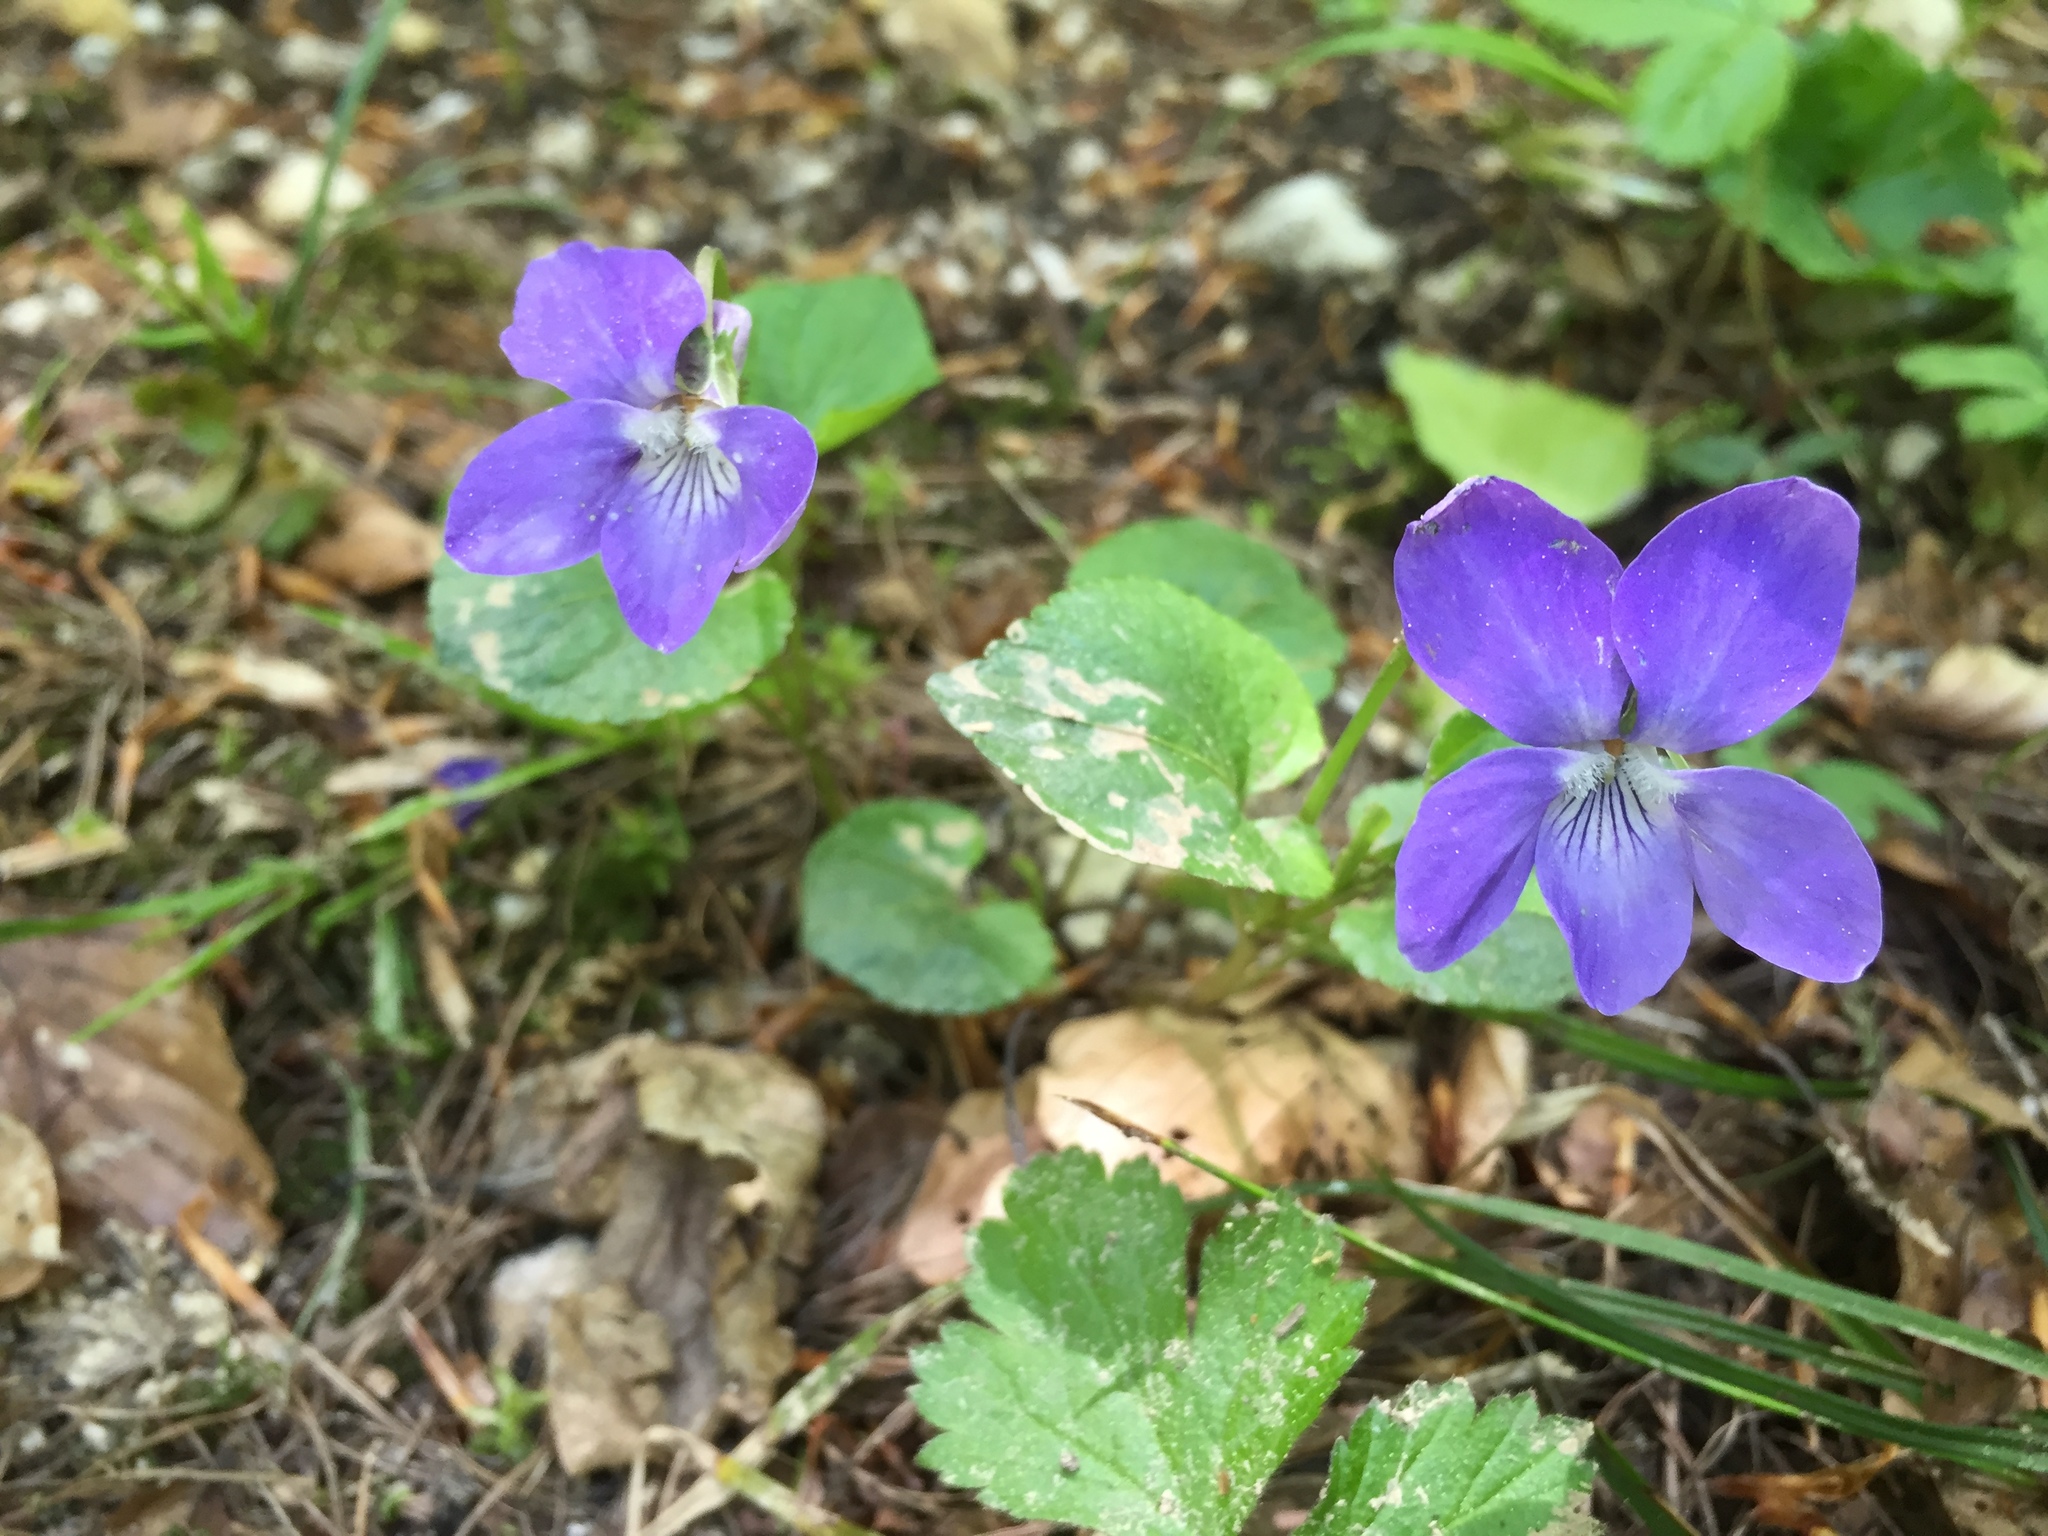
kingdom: Plantae
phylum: Tracheophyta
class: Magnoliopsida
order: Malpighiales
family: Violaceae
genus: Viola
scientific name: Viola reichenbachiana
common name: Early dog-violet
